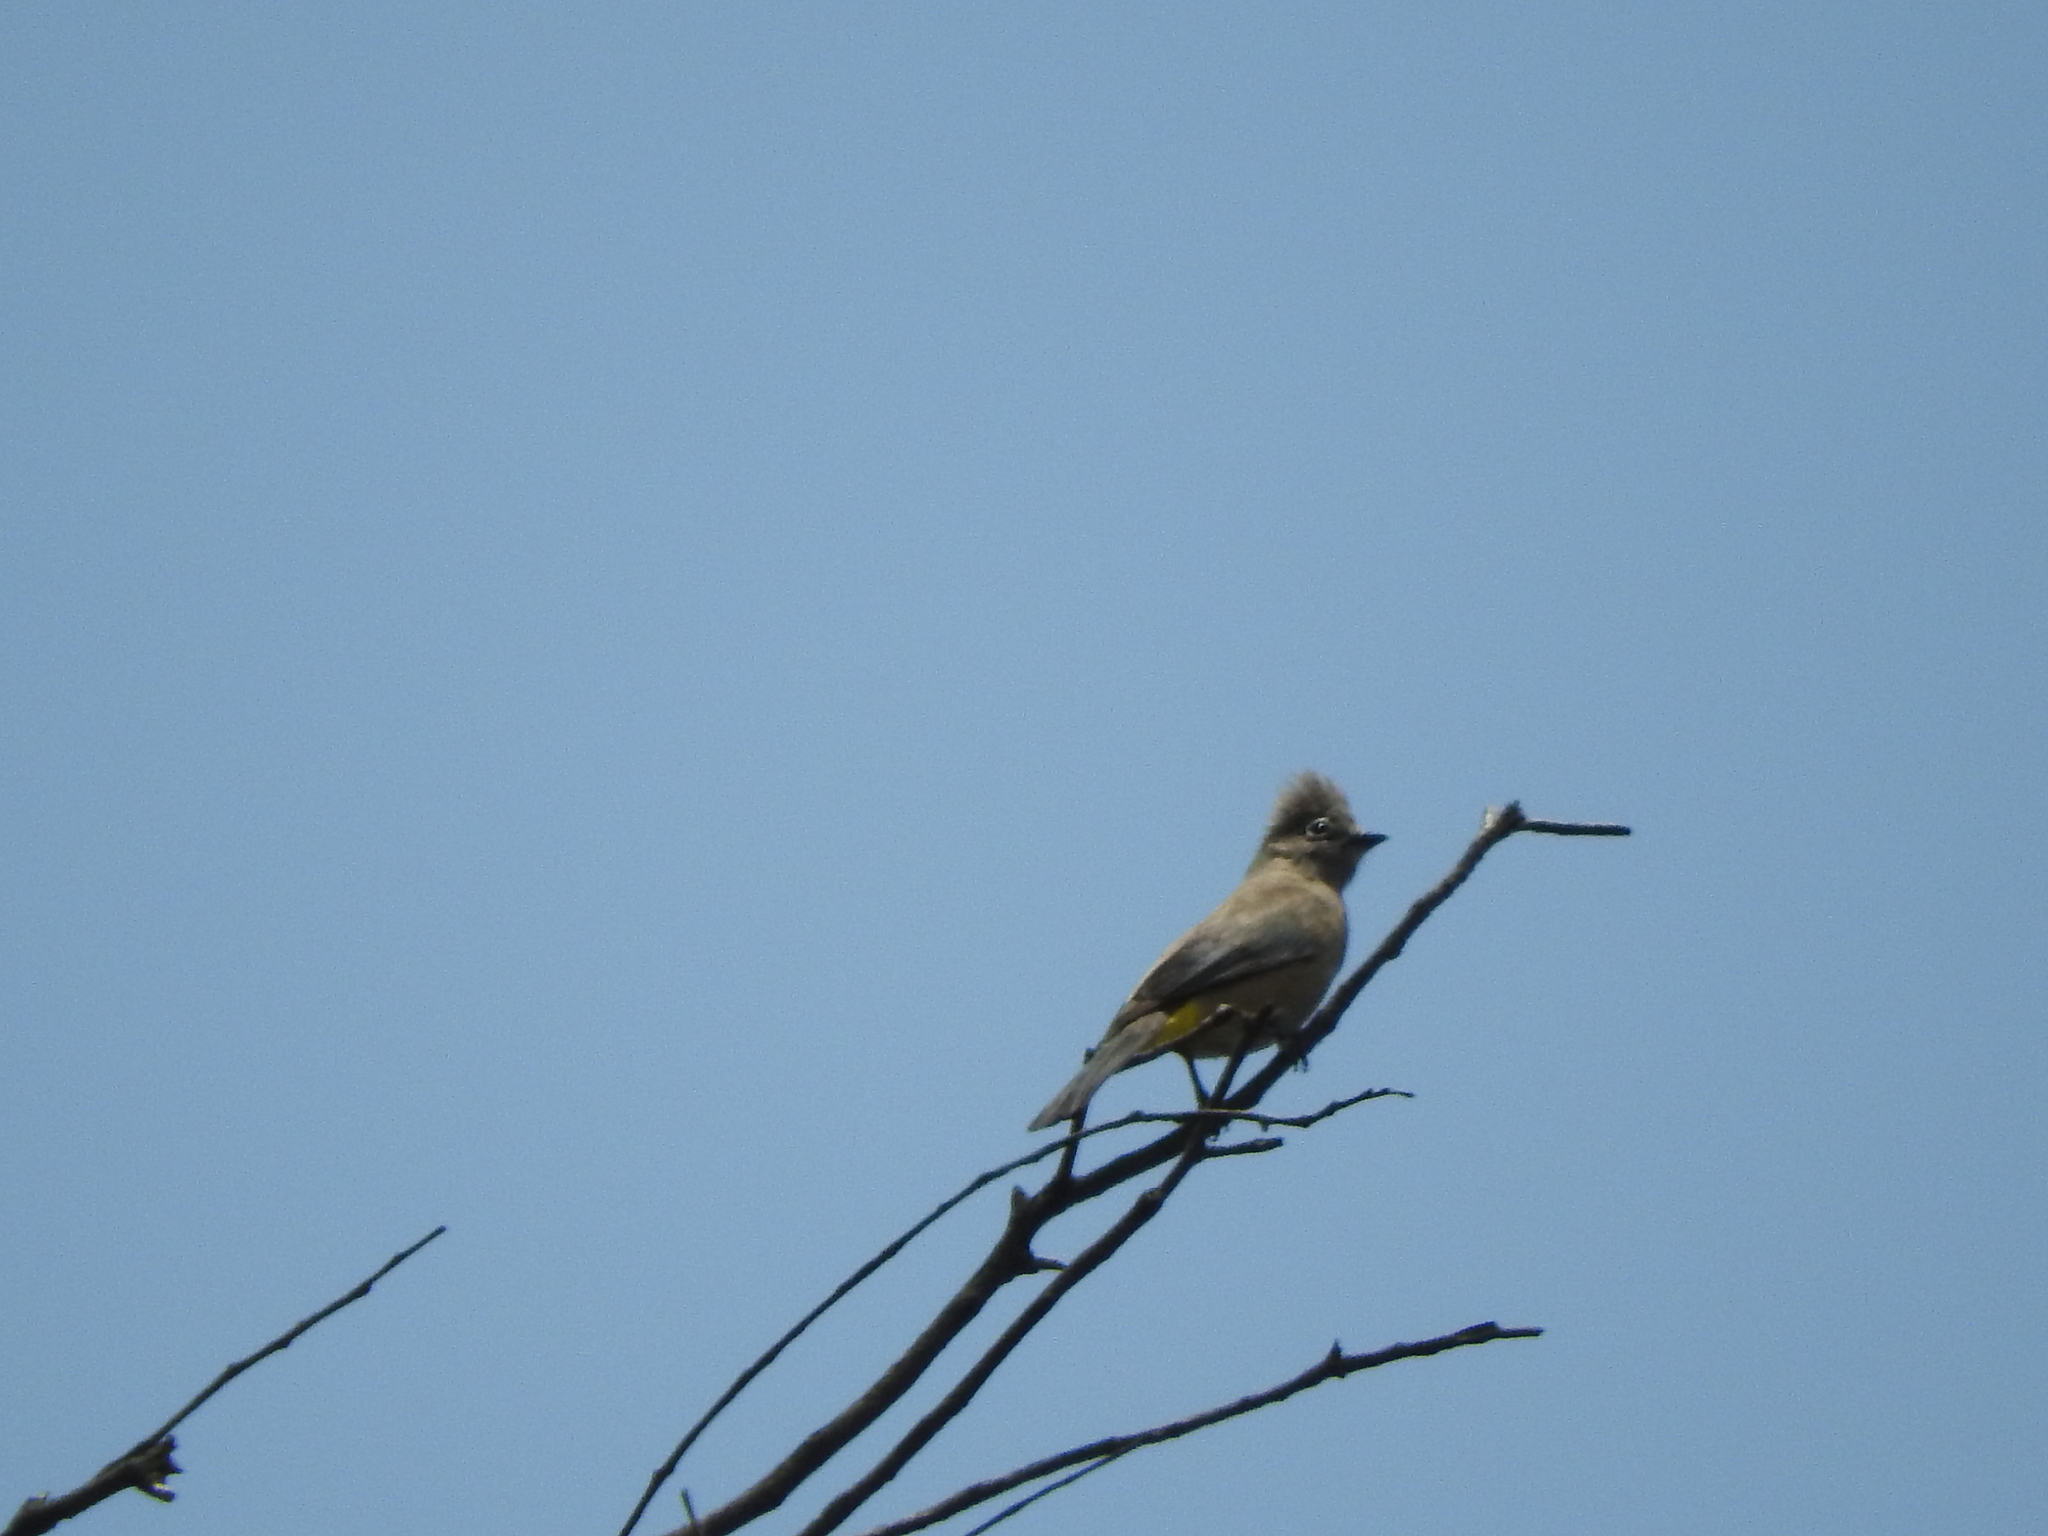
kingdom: Animalia
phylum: Chordata
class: Aves
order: Passeriformes
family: Ptilogonatidae
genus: Ptilogonys
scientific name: Ptilogonys cinereus
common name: Gray silky-flycatcher
